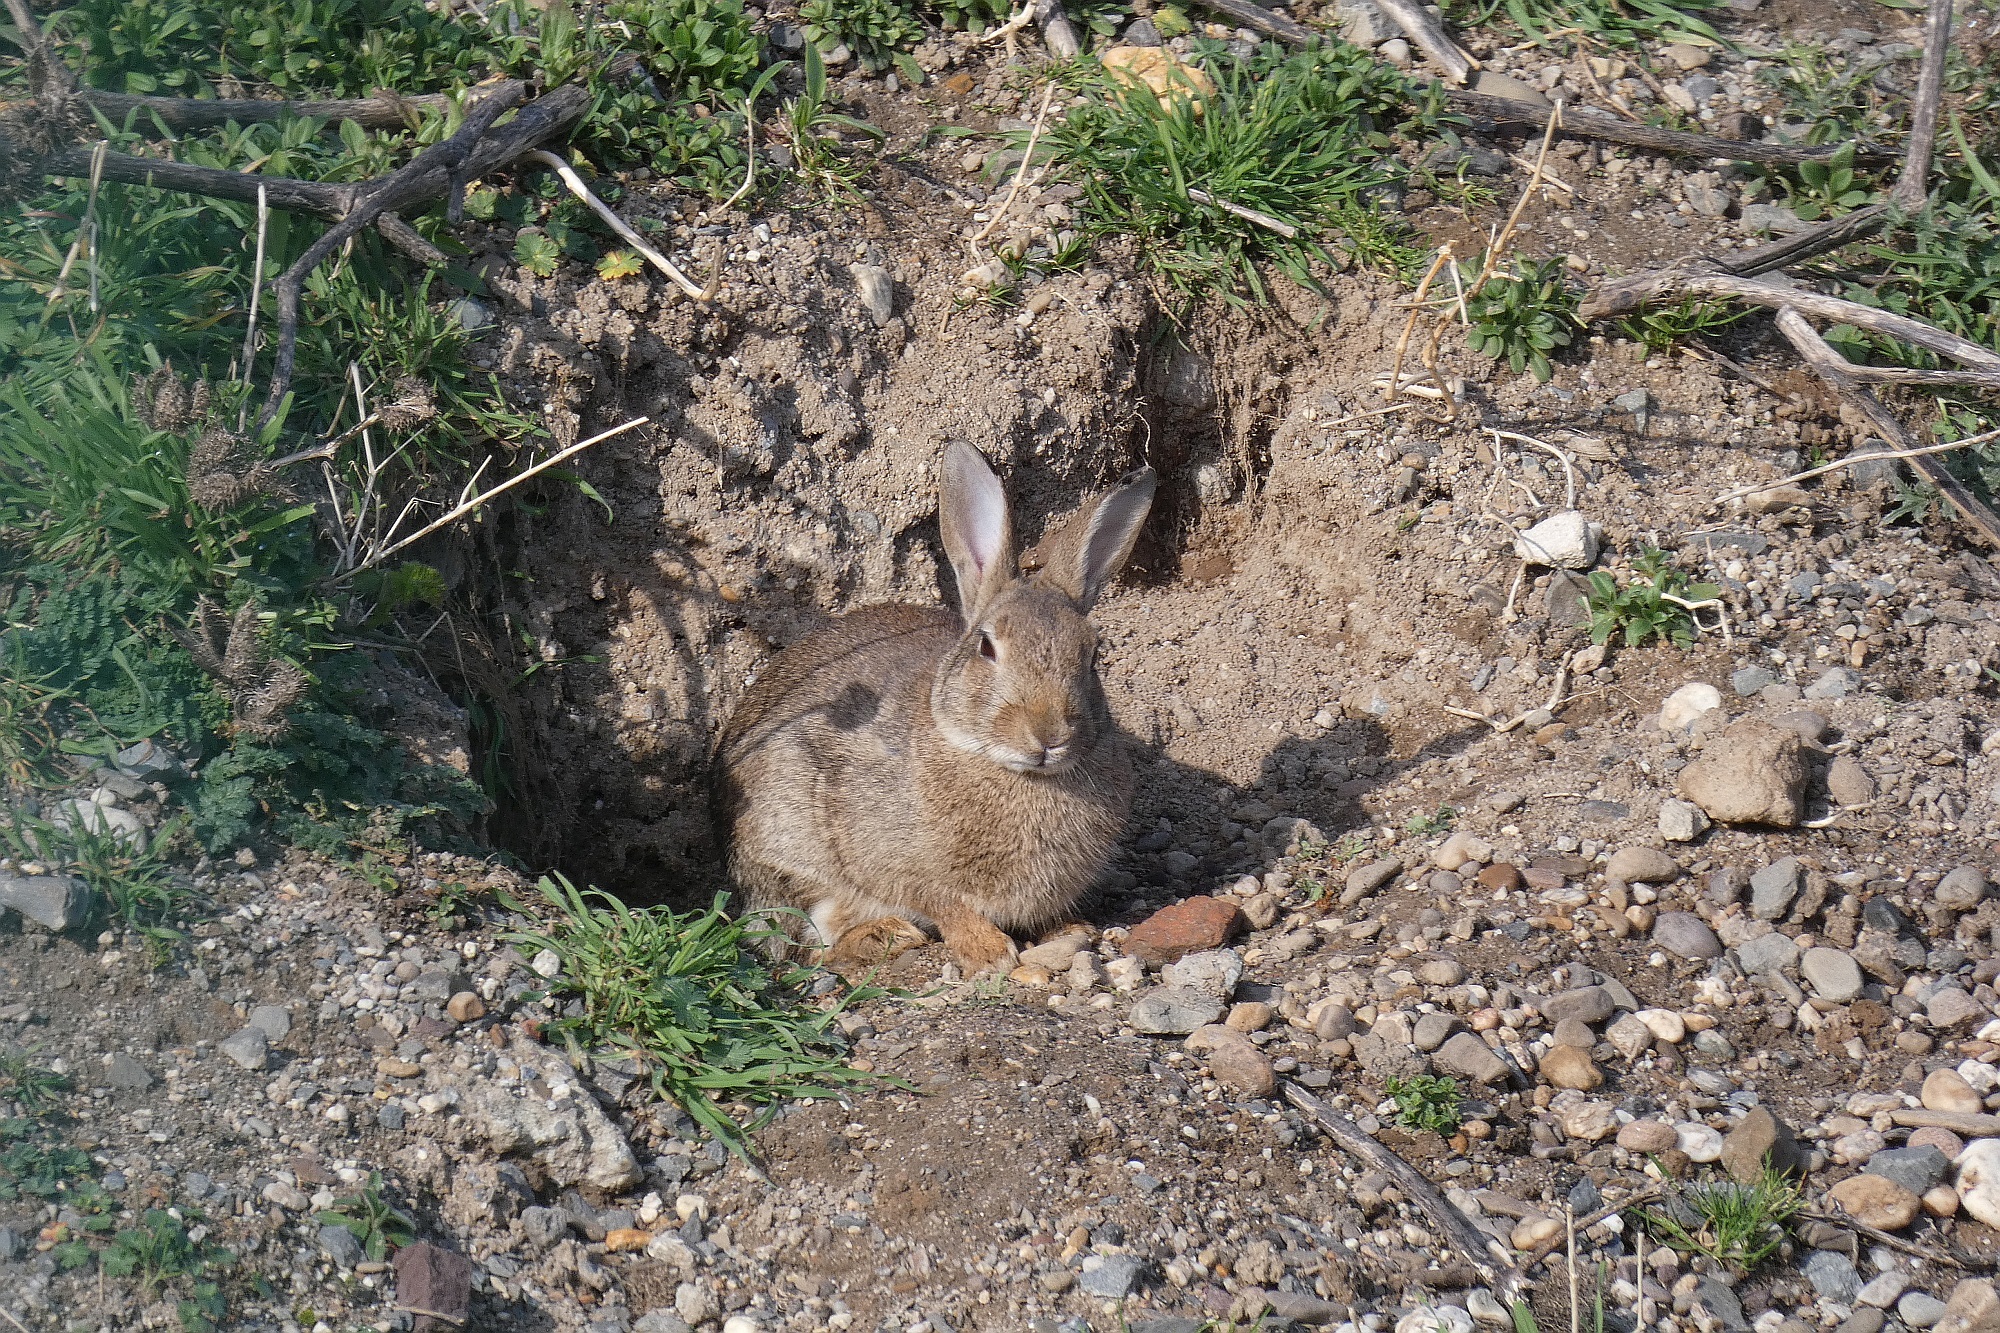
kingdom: Animalia
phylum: Chordata
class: Mammalia
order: Lagomorpha
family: Leporidae
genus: Oryctolagus
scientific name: Oryctolagus cuniculus
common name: European rabbit
